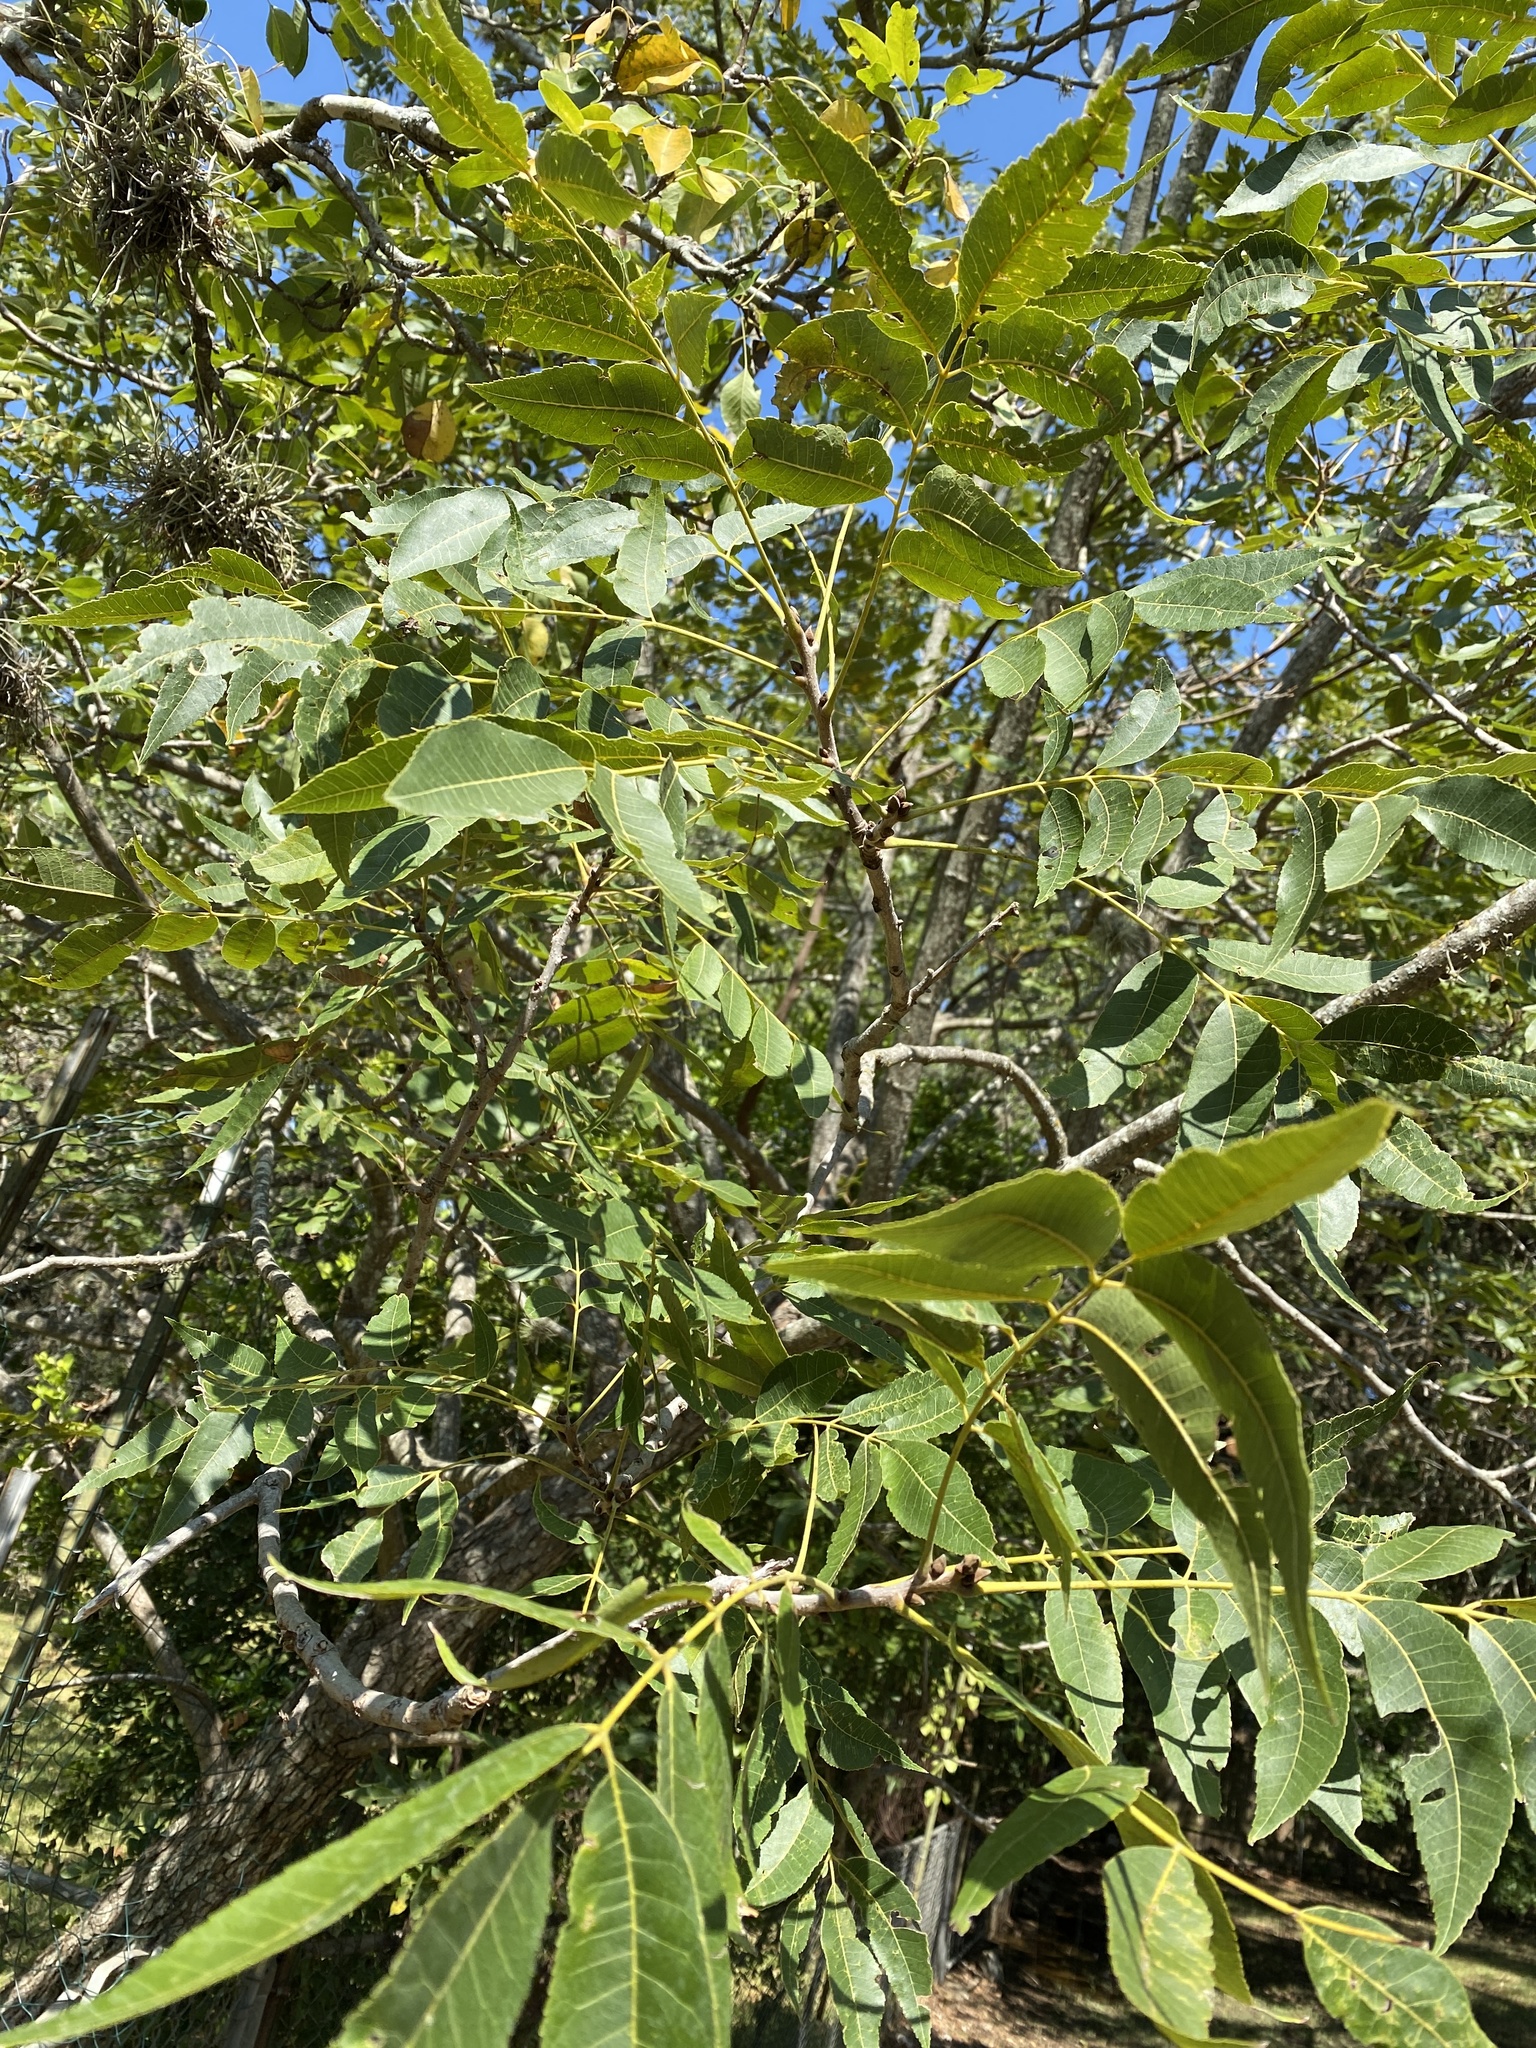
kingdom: Plantae
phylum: Tracheophyta
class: Magnoliopsida
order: Fagales
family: Juglandaceae
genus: Carya
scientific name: Carya illinoinensis
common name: Pecan
